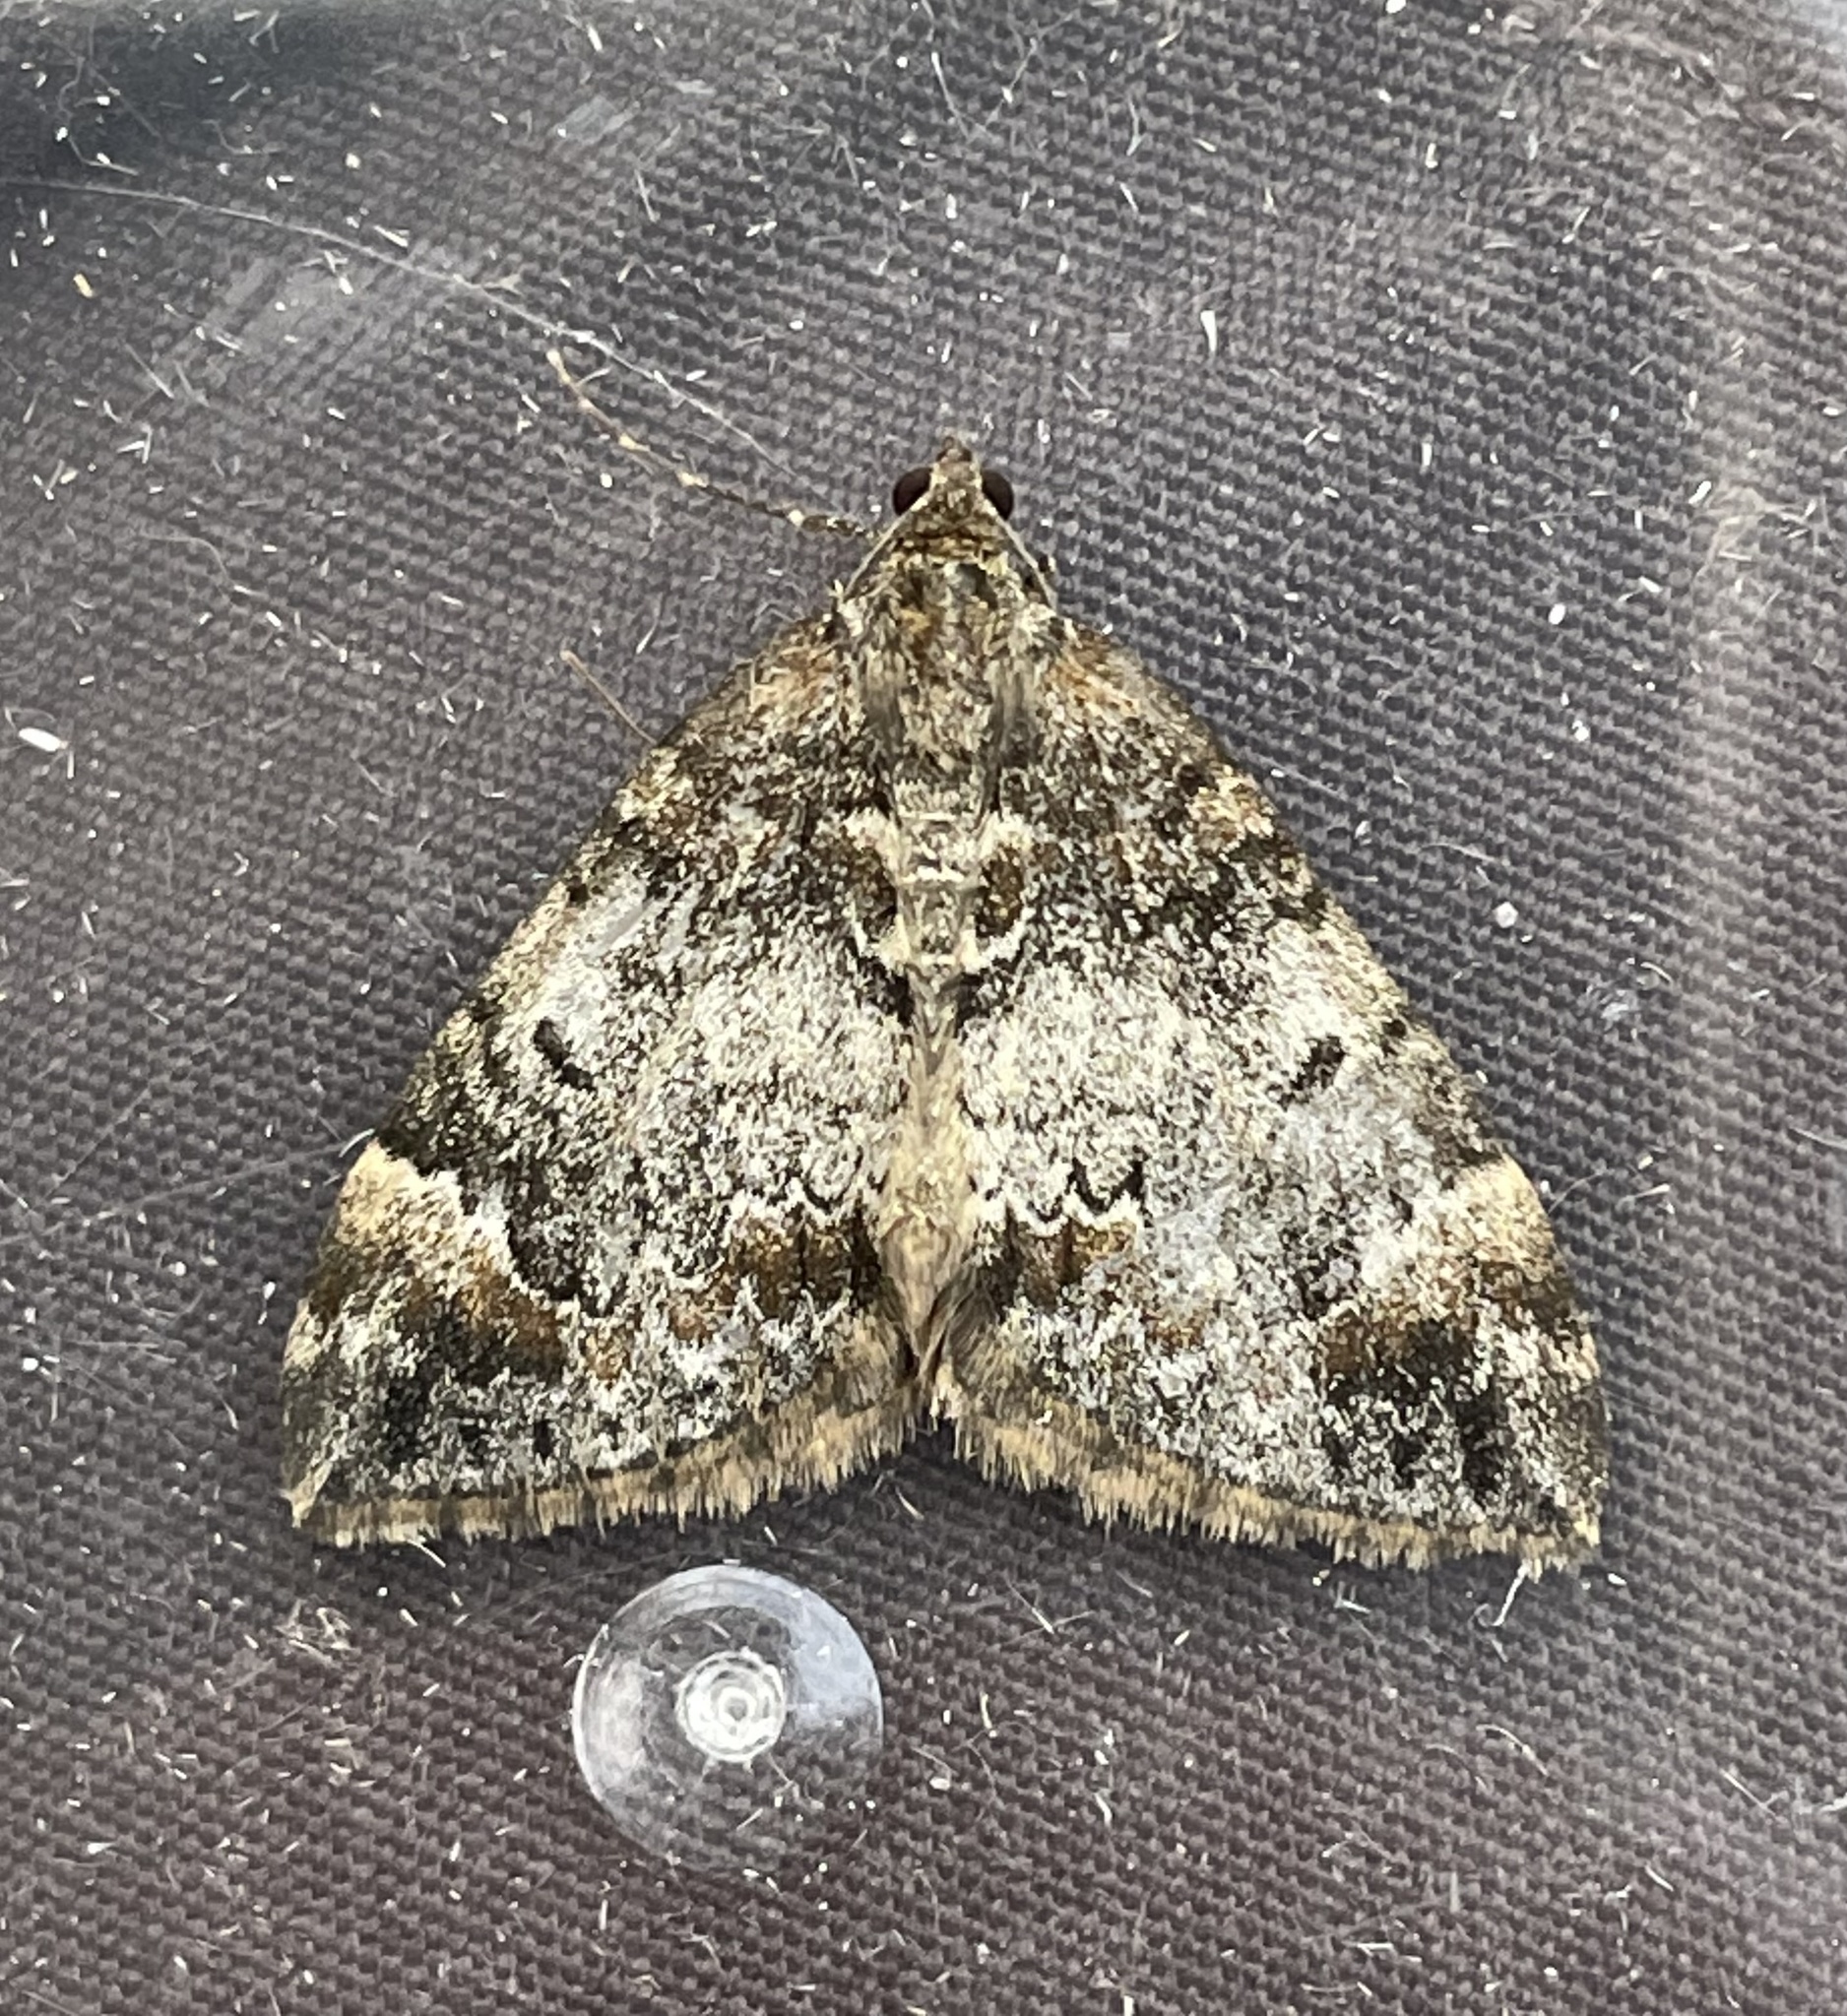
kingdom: Animalia
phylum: Arthropoda
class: Insecta
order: Lepidoptera
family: Geometridae
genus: Dysstroma
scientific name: Dysstroma truncata
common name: Common marbled carpet
